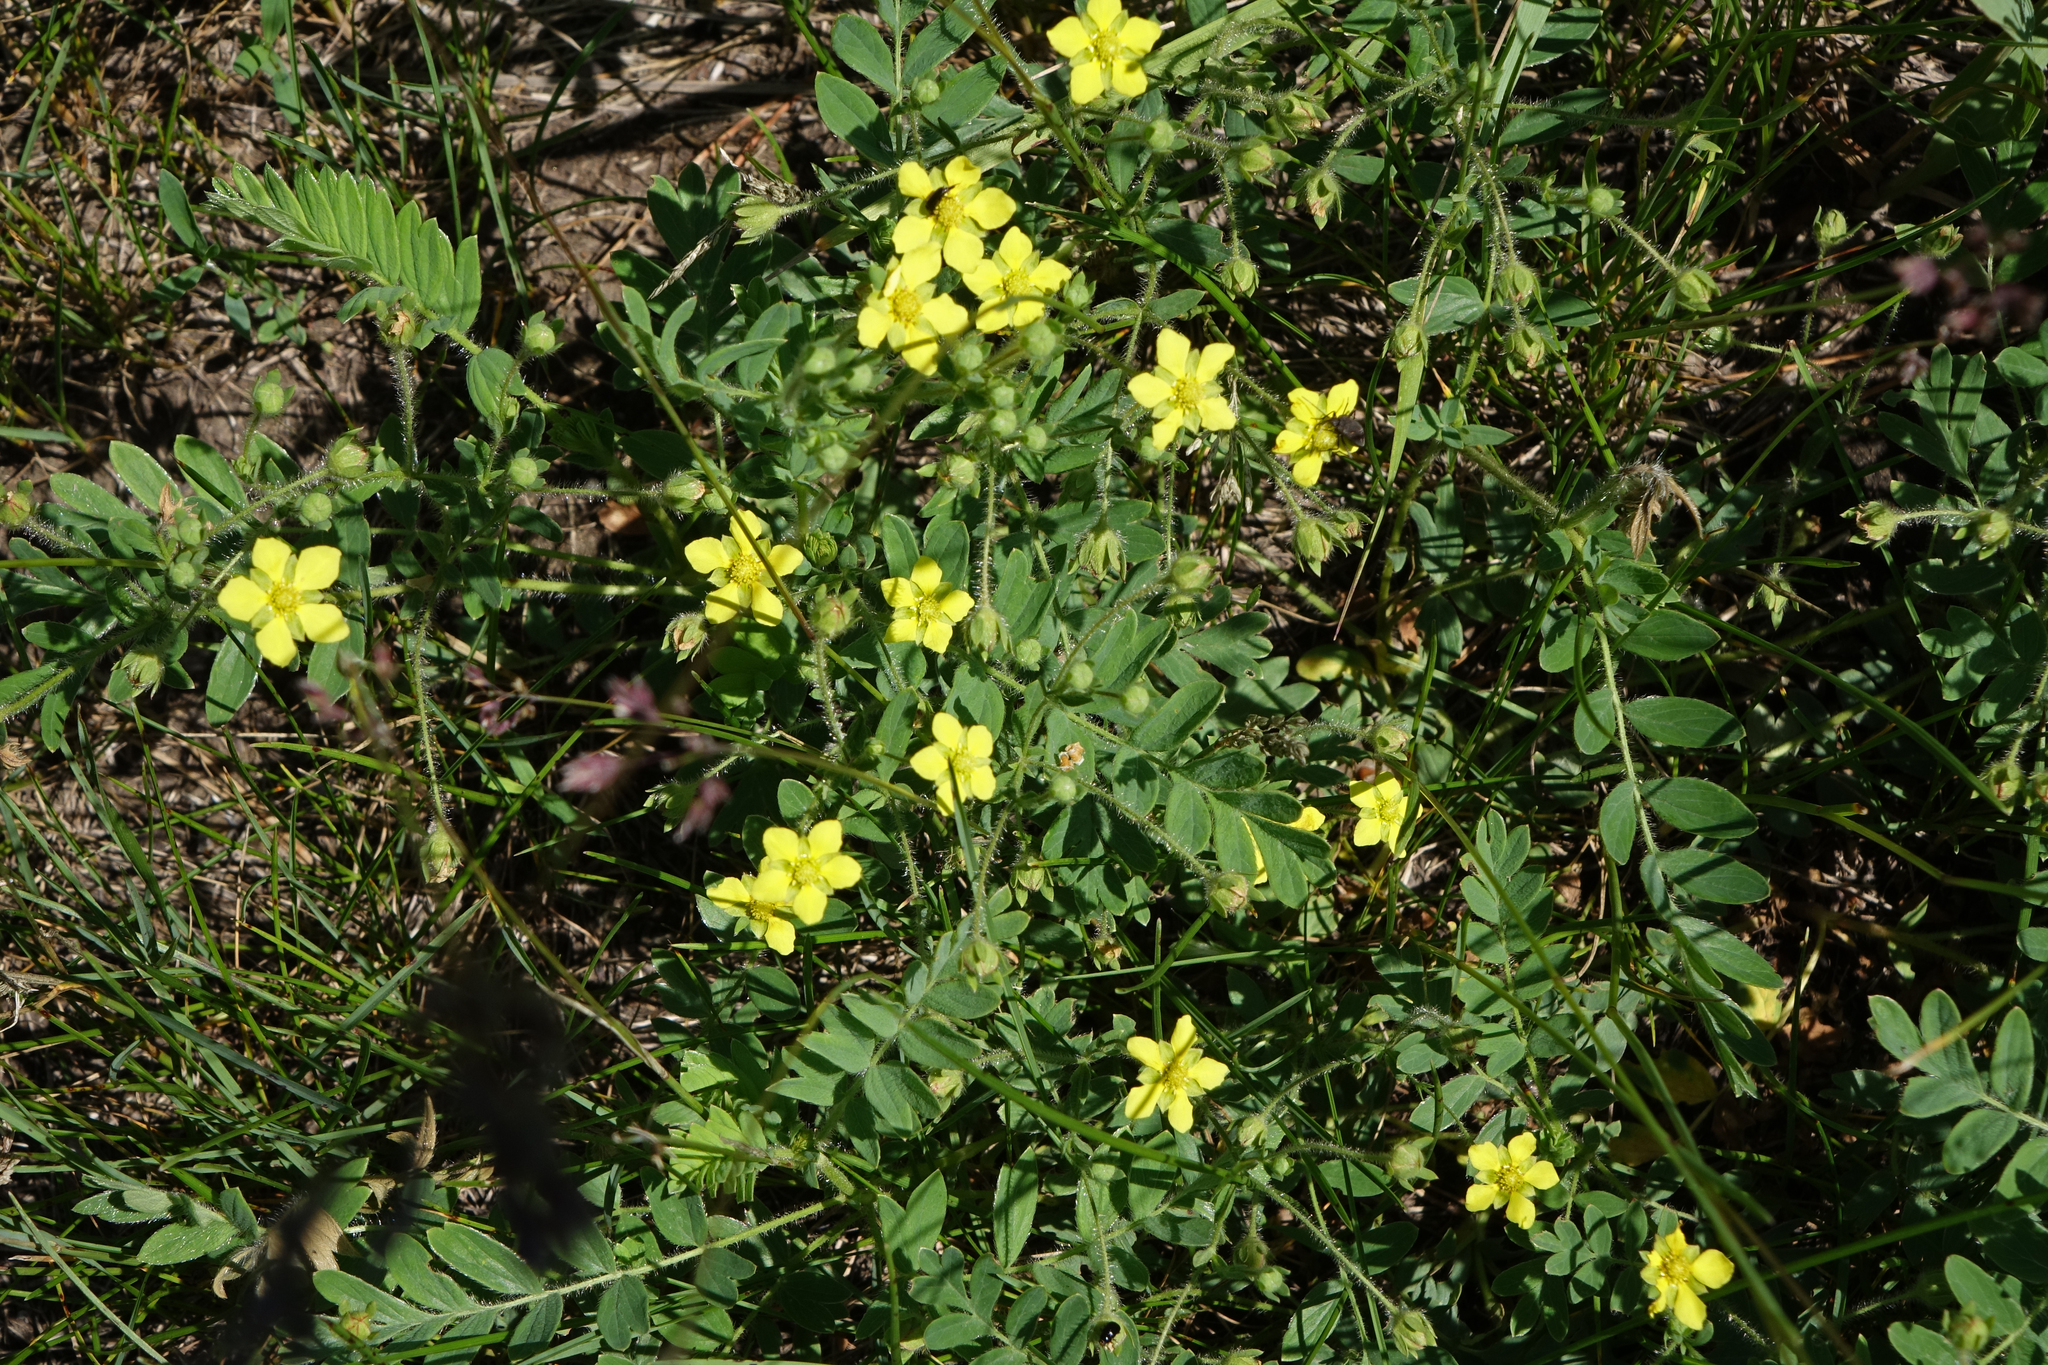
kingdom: Plantae
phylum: Tracheophyta
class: Magnoliopsida
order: Rosales
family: Rosaceae
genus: Sibbaldianthe
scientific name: Sibbaldianthe bifurca
